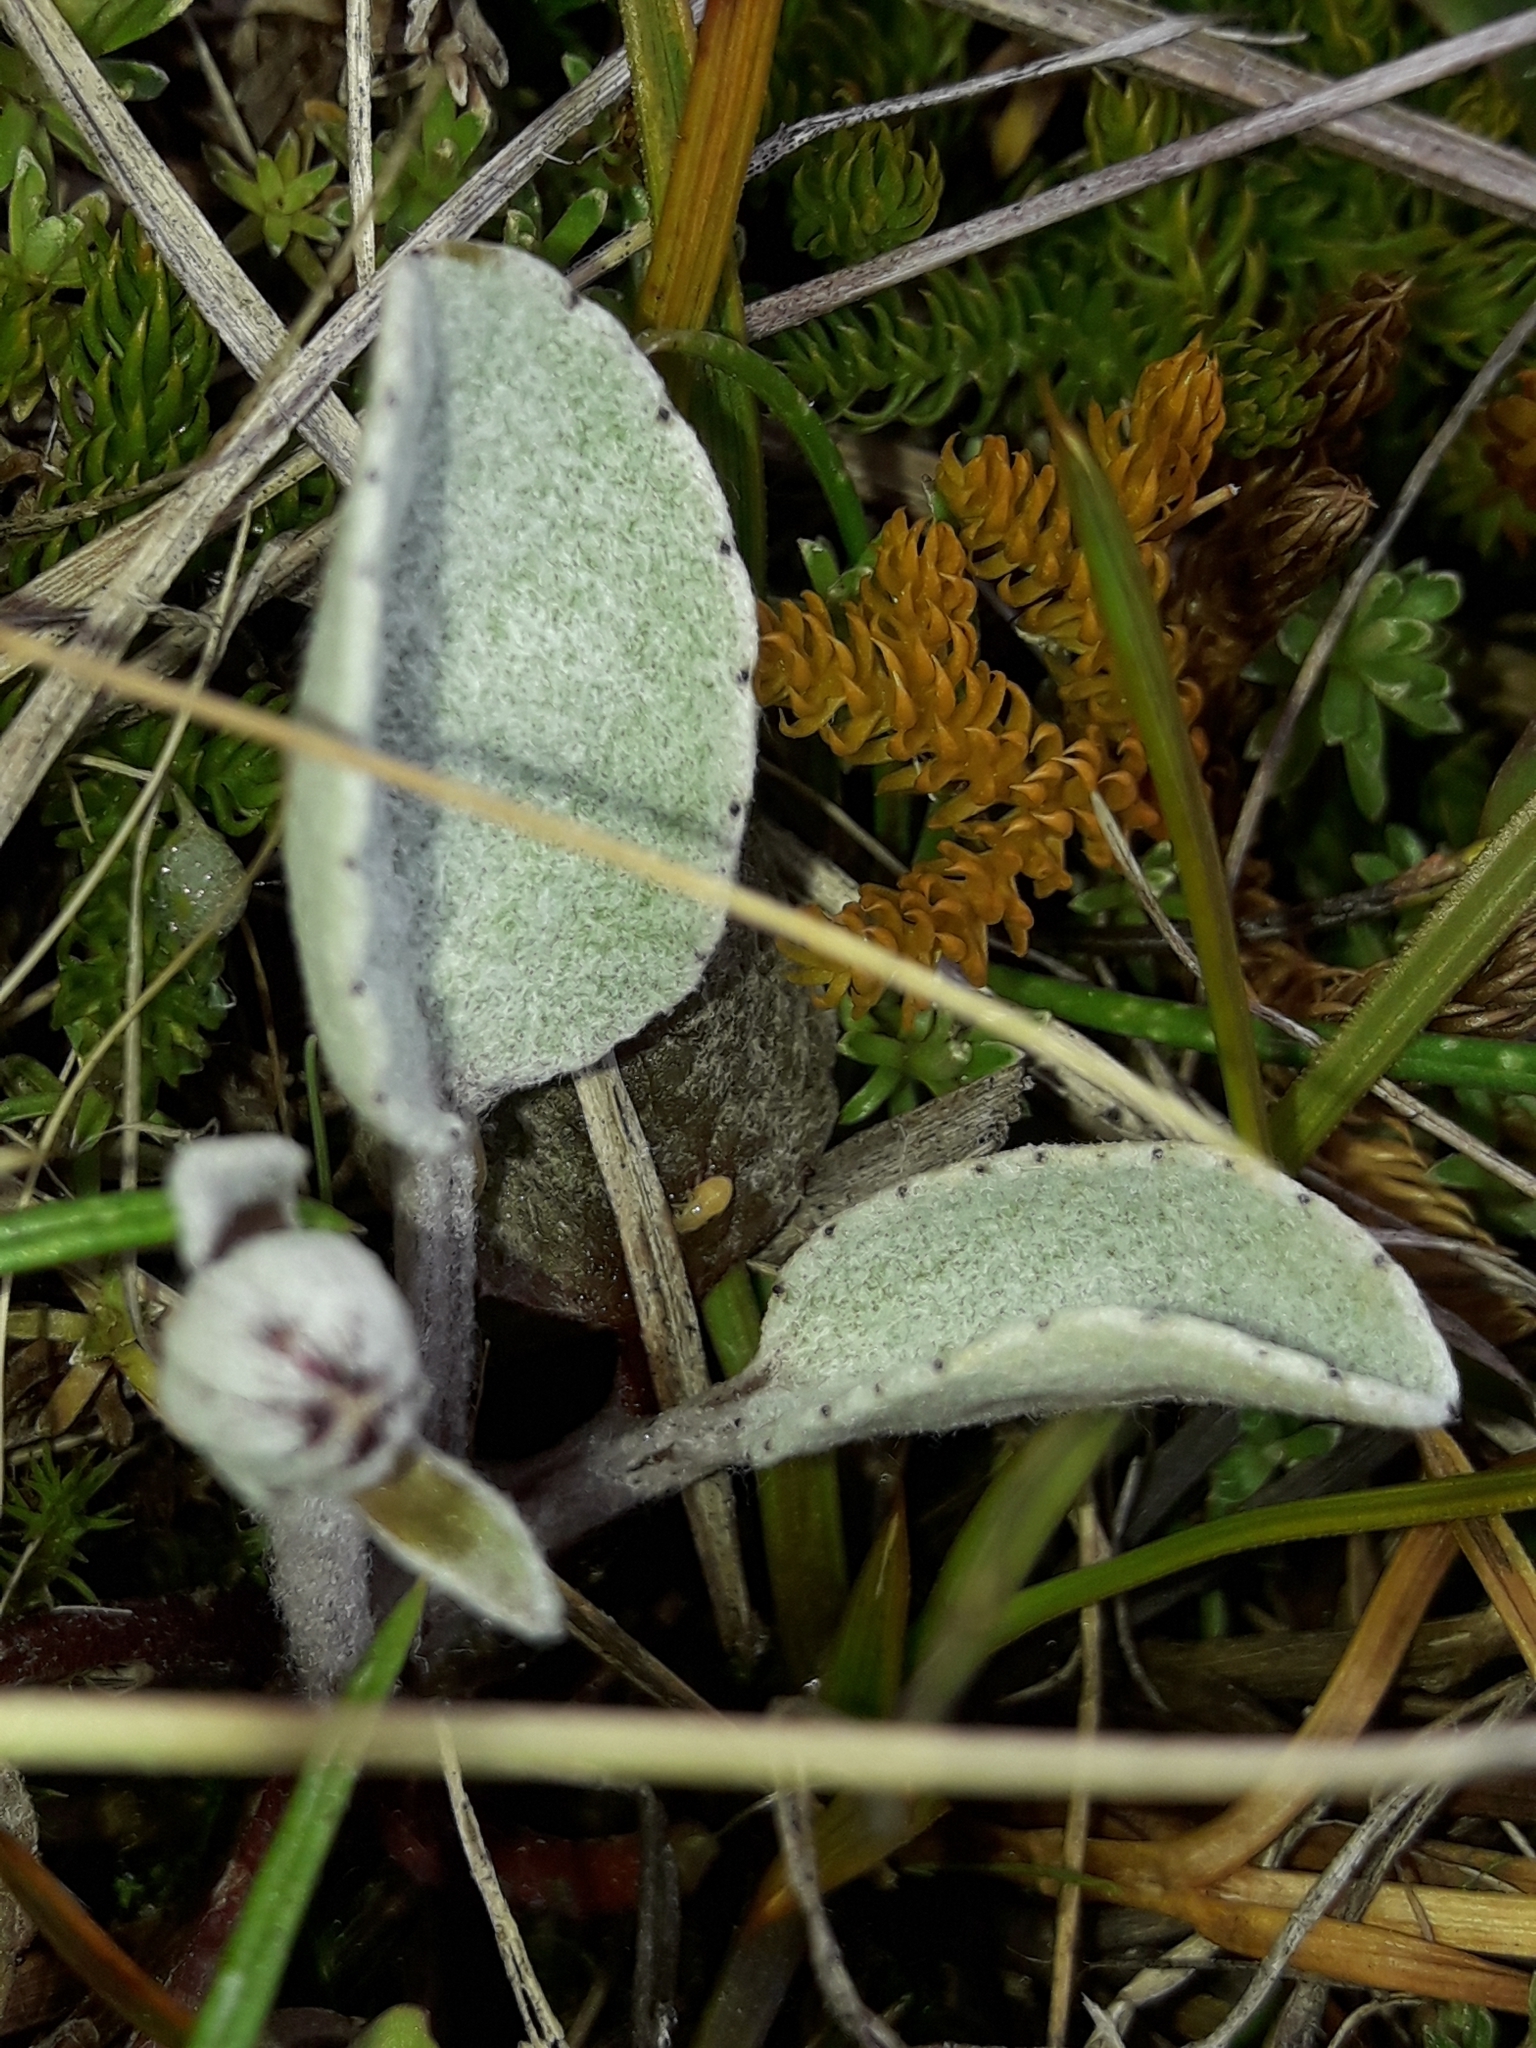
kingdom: Plantae
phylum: Tracheophyta
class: Magnoliopsida
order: Asterales
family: Asteraceae
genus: Brachyglottis
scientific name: Brachyglottis haastii
